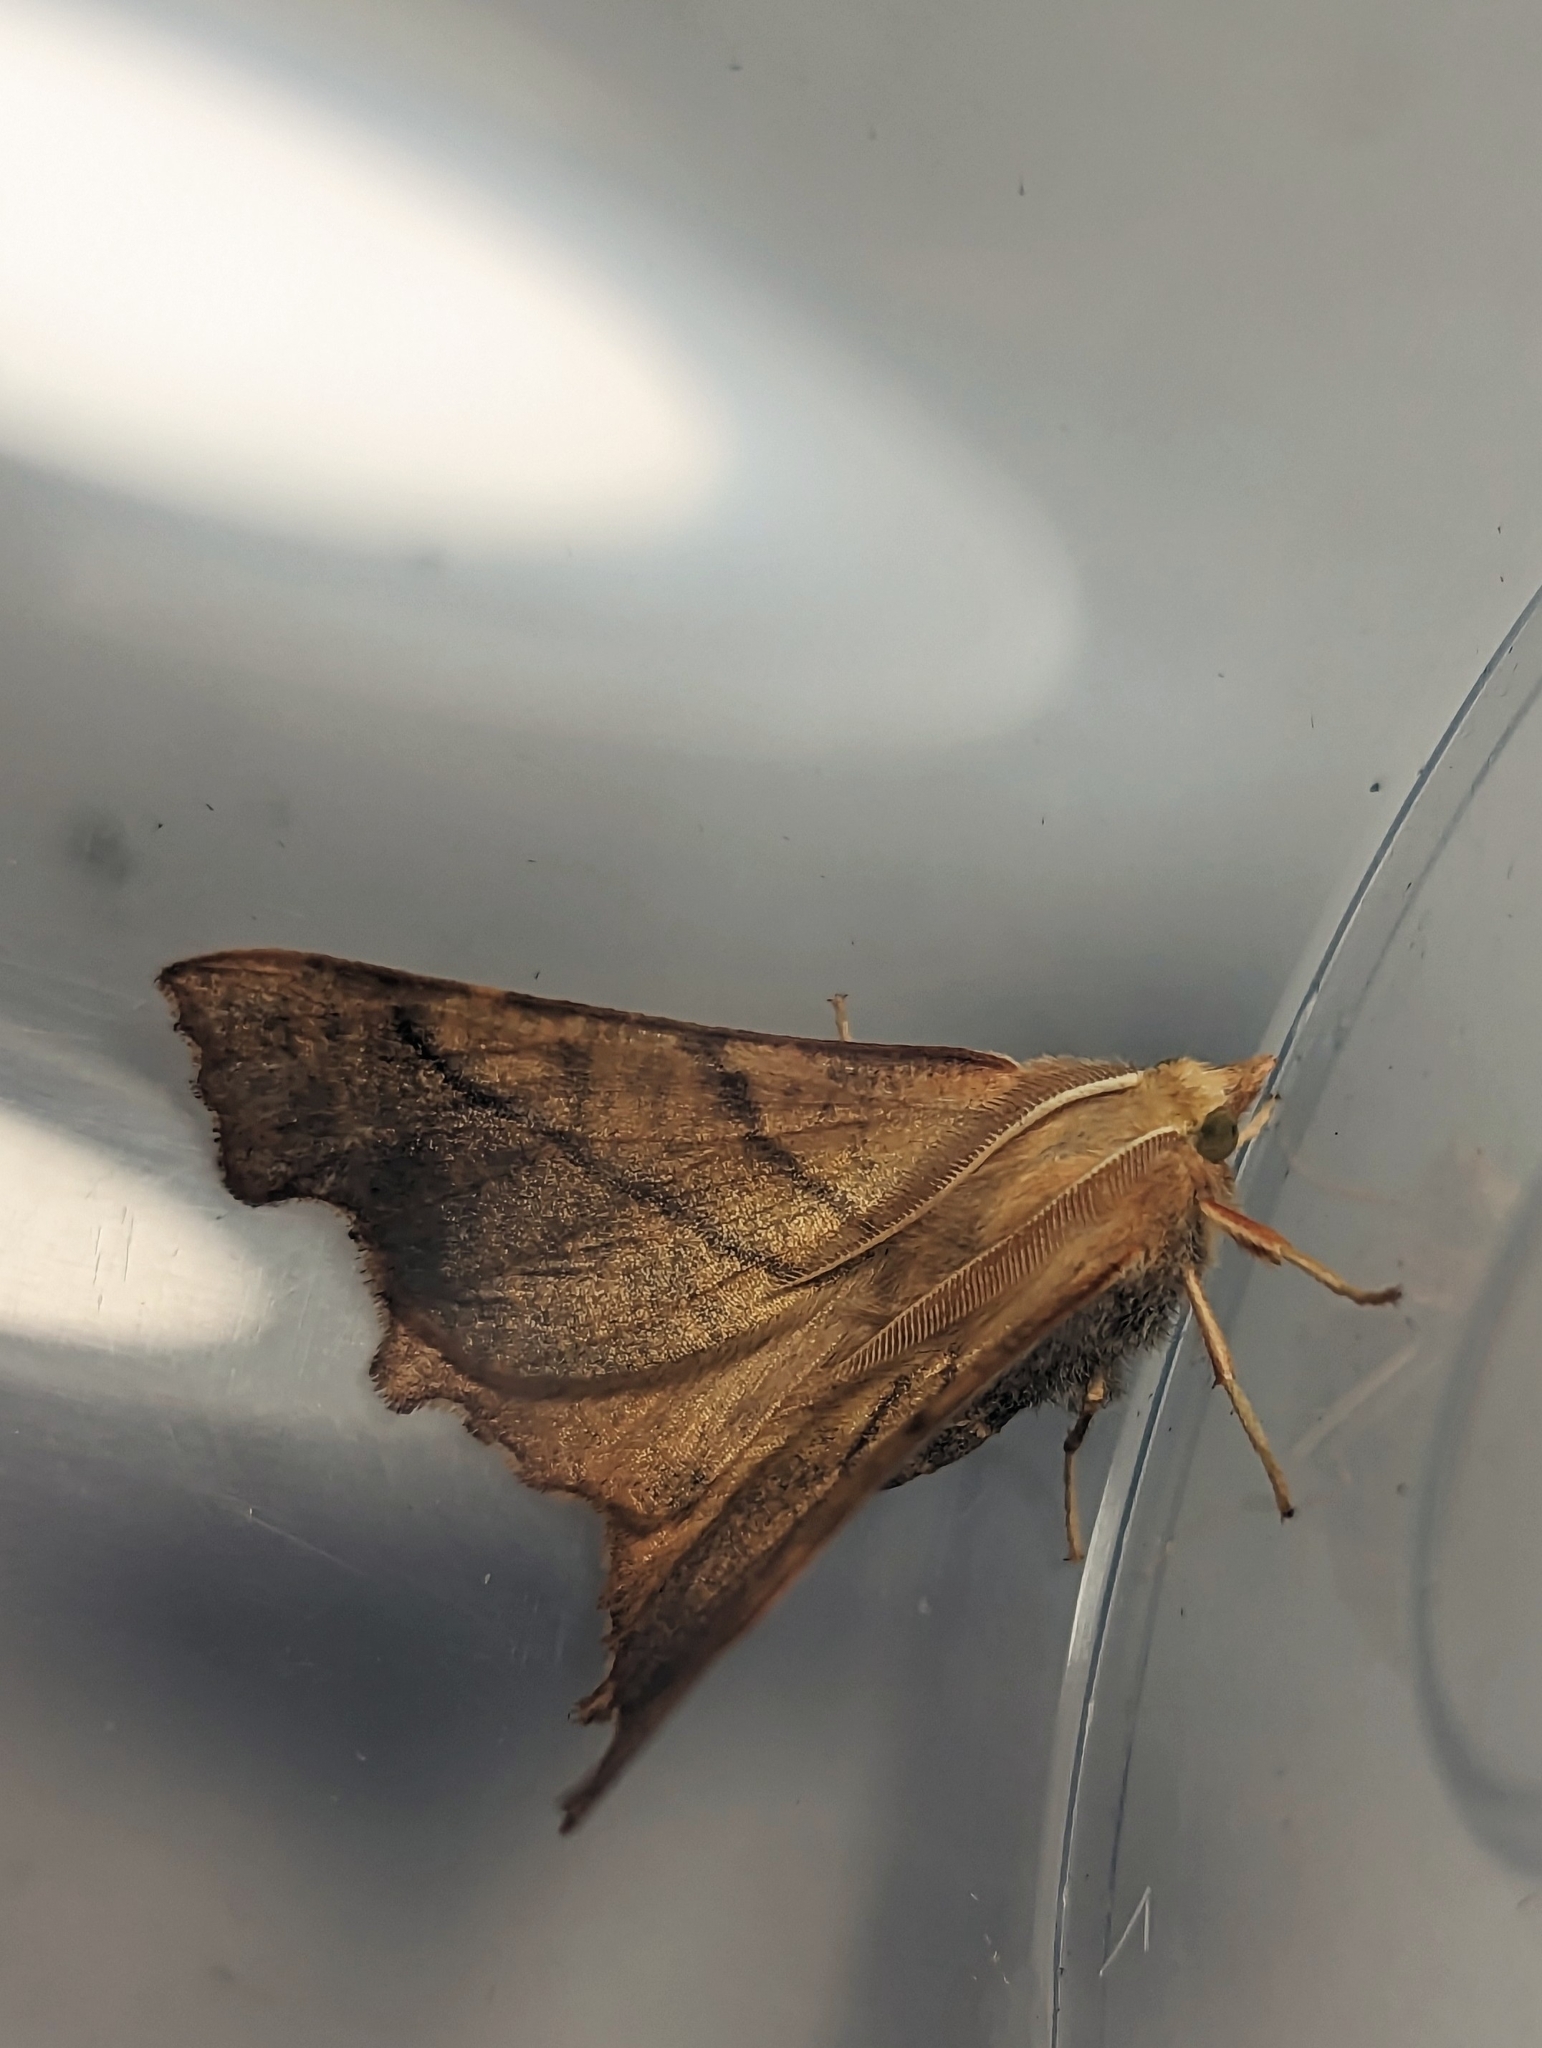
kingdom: Animalia
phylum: Arthropoda
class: Insecta
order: Lepidoptera
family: Geometridae
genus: Ennomos
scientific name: Ennomos fuscantaria
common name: Dusky thorn
